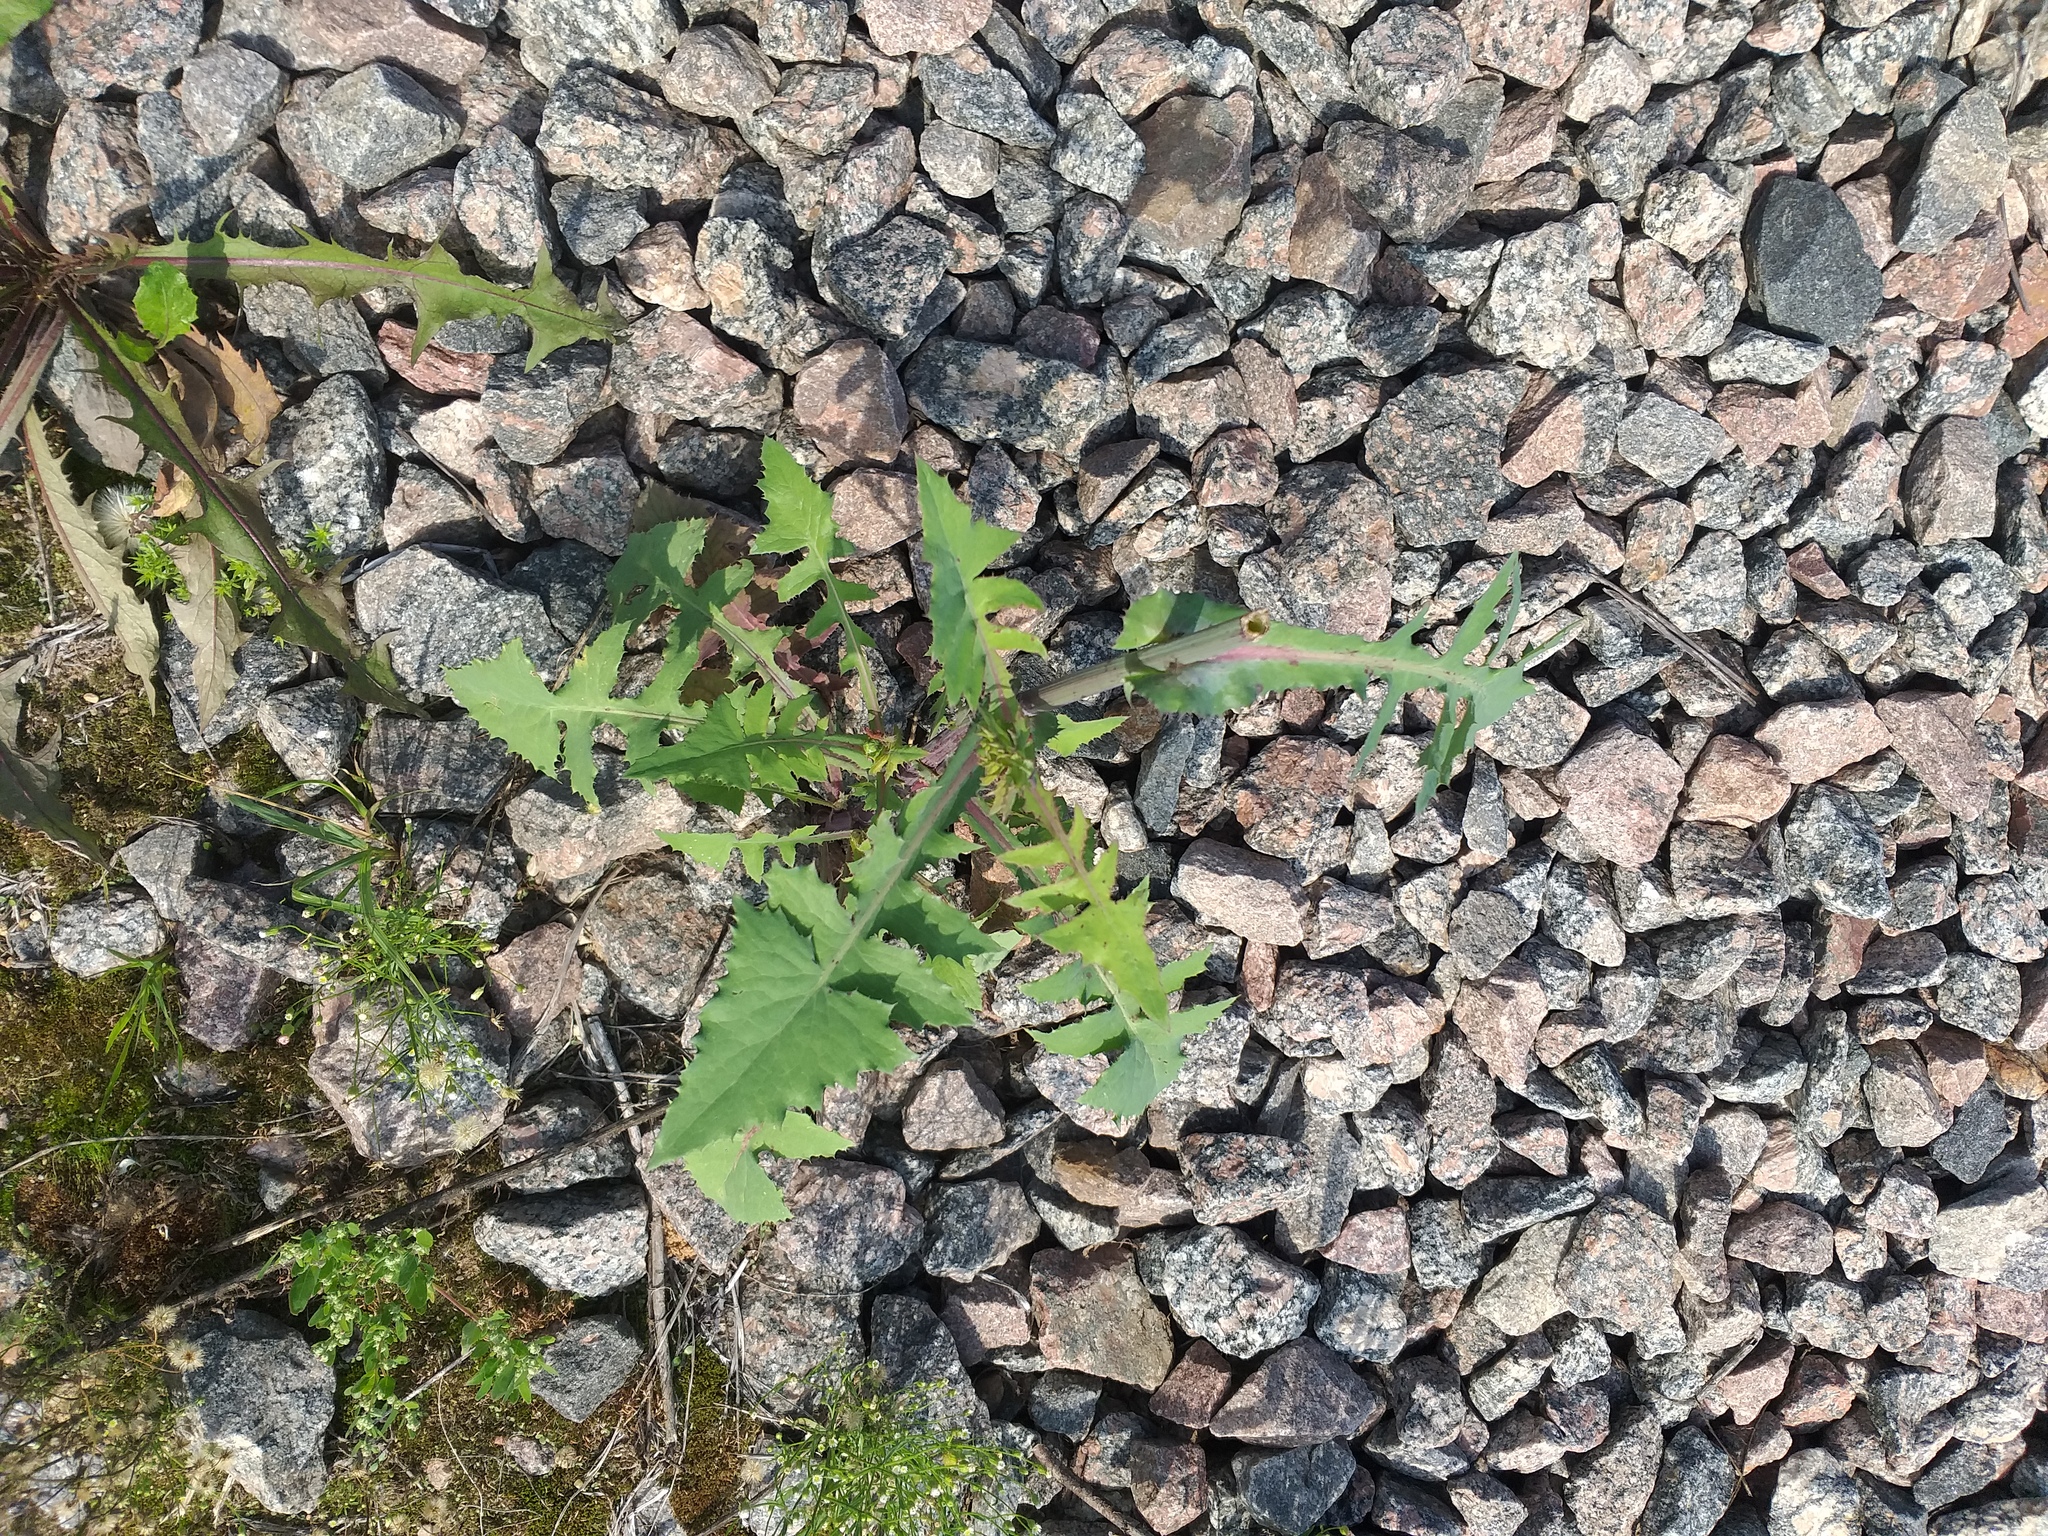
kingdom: Plantae
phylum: Tracheophyta
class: Magnoliopsida
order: Asterales
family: Asteraceae
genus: Sonchus
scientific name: Sonchus oleraceus
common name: Common sowthistle
